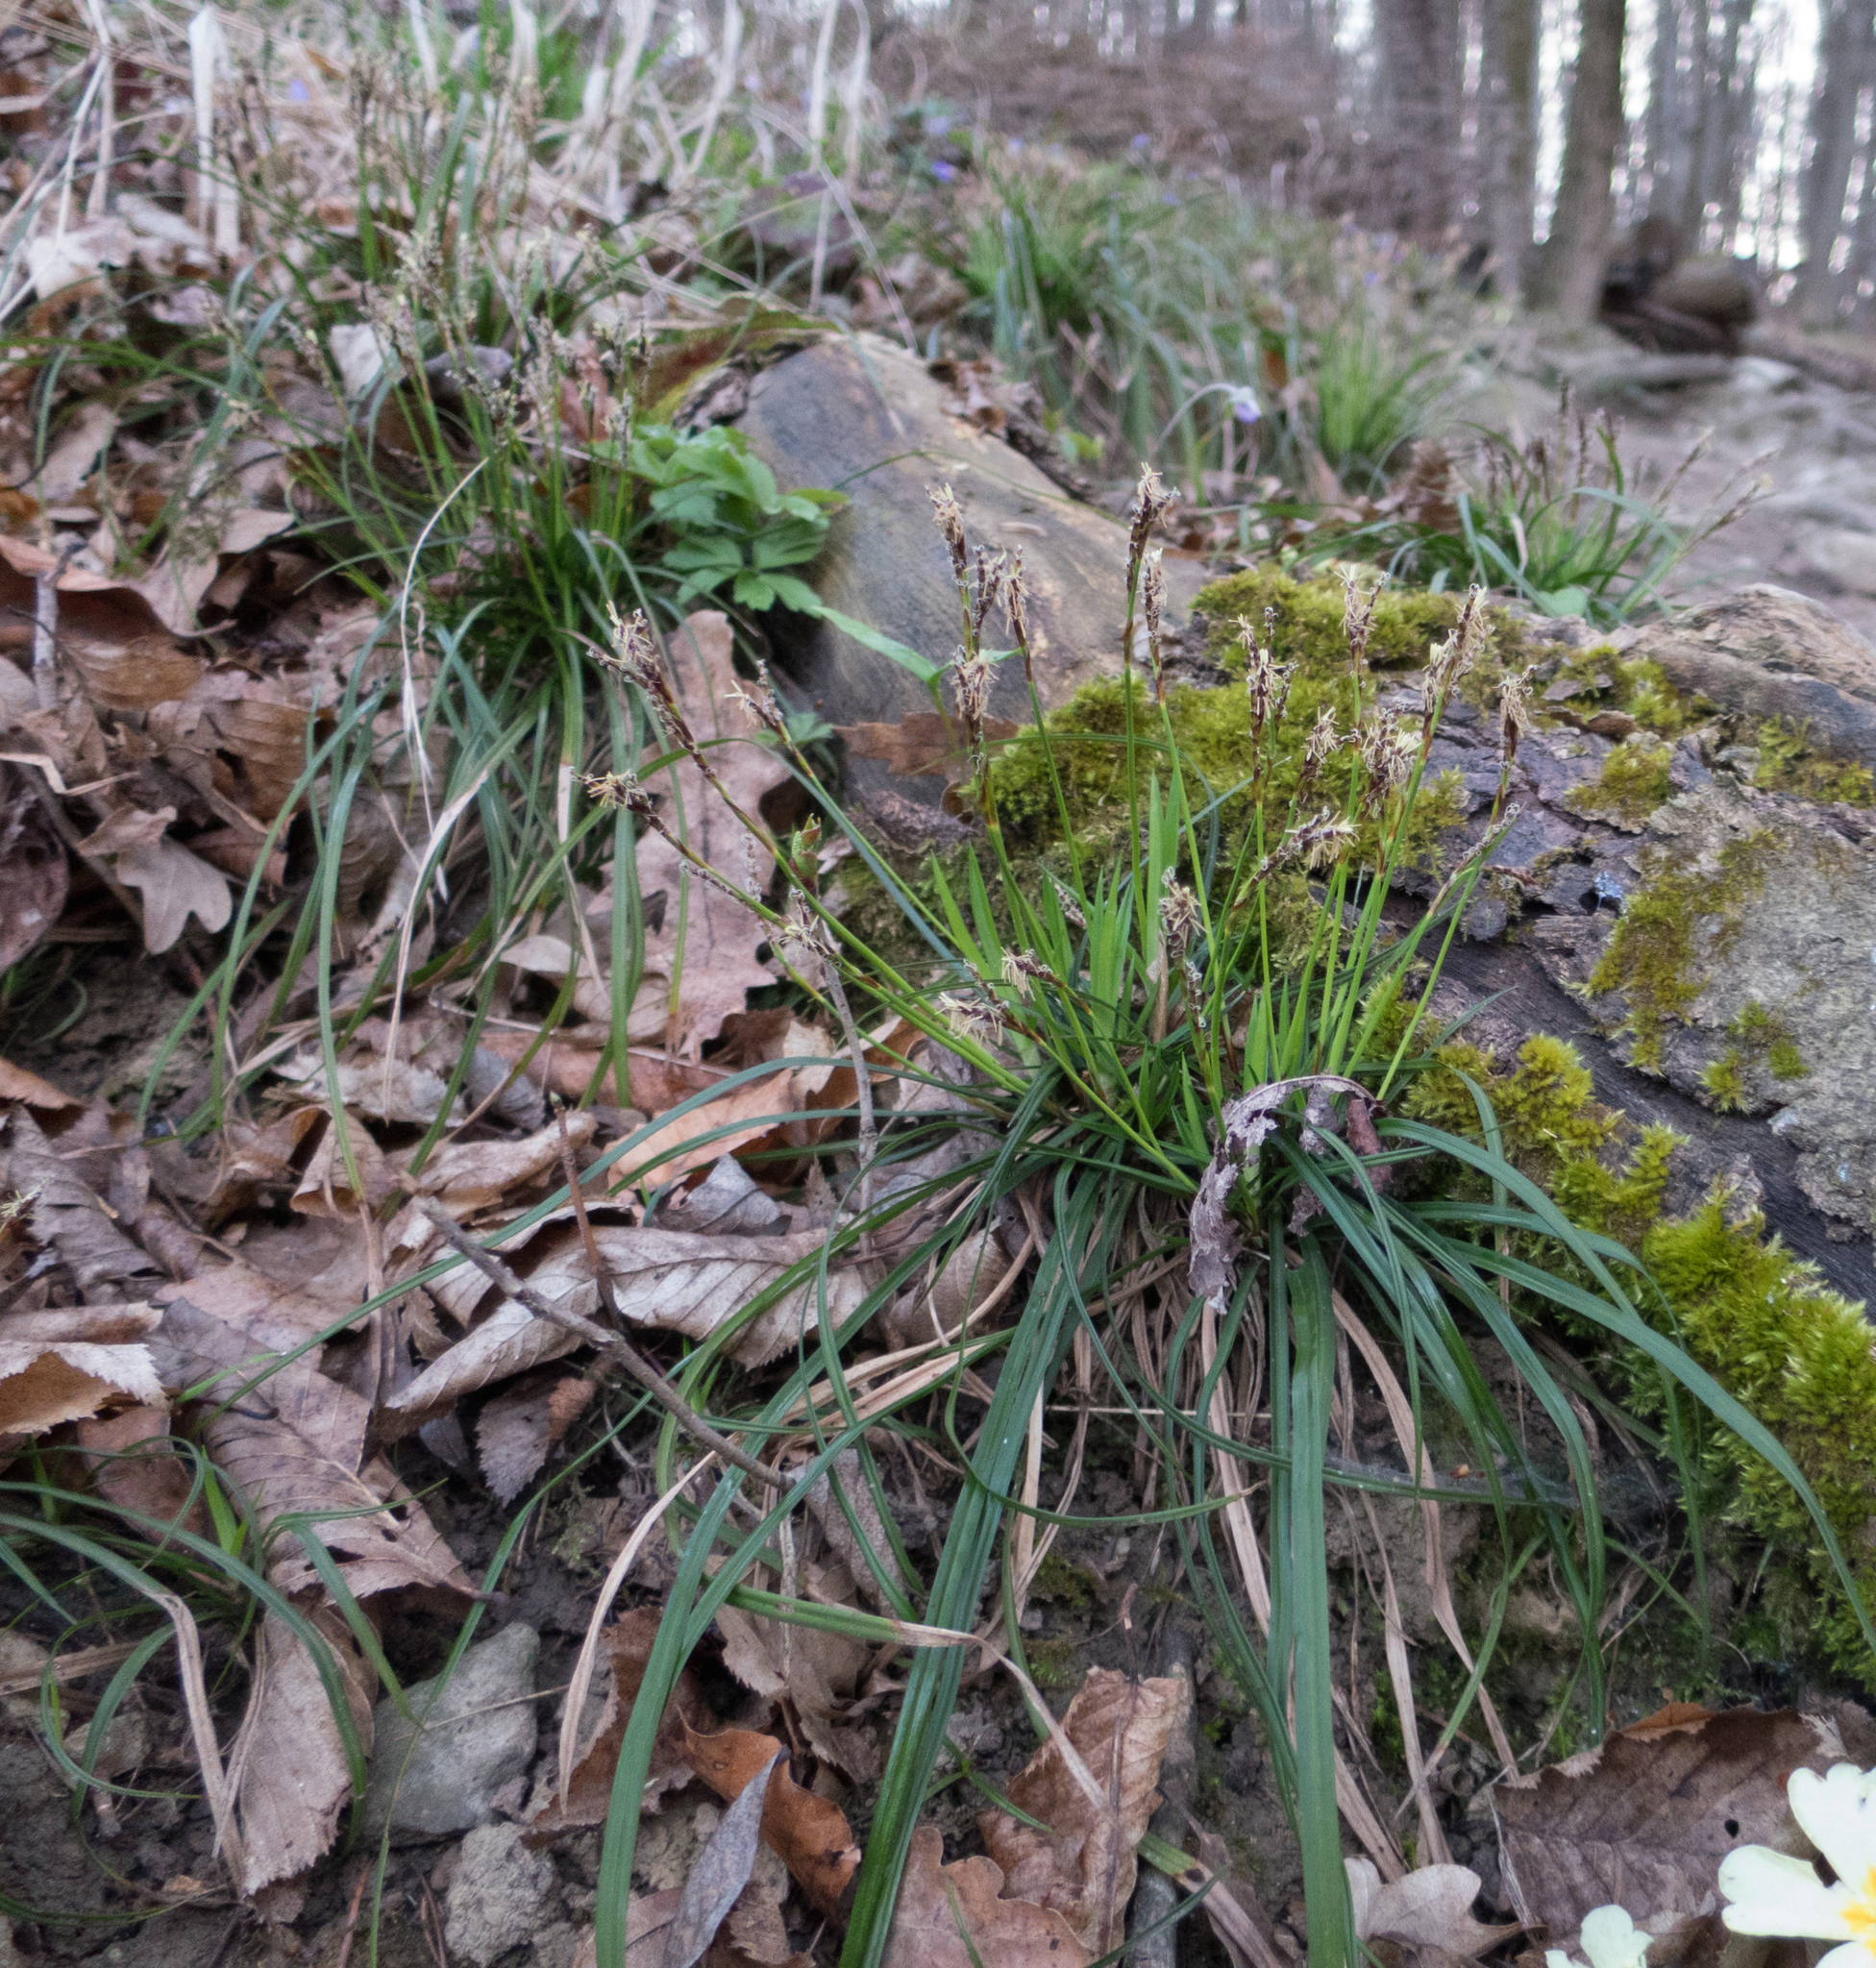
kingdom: Plantae
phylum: Tracheophyta
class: Liliopsida
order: Poales
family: Cyperaceae
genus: Carex
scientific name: Carex digitata
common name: Fingered sedge
